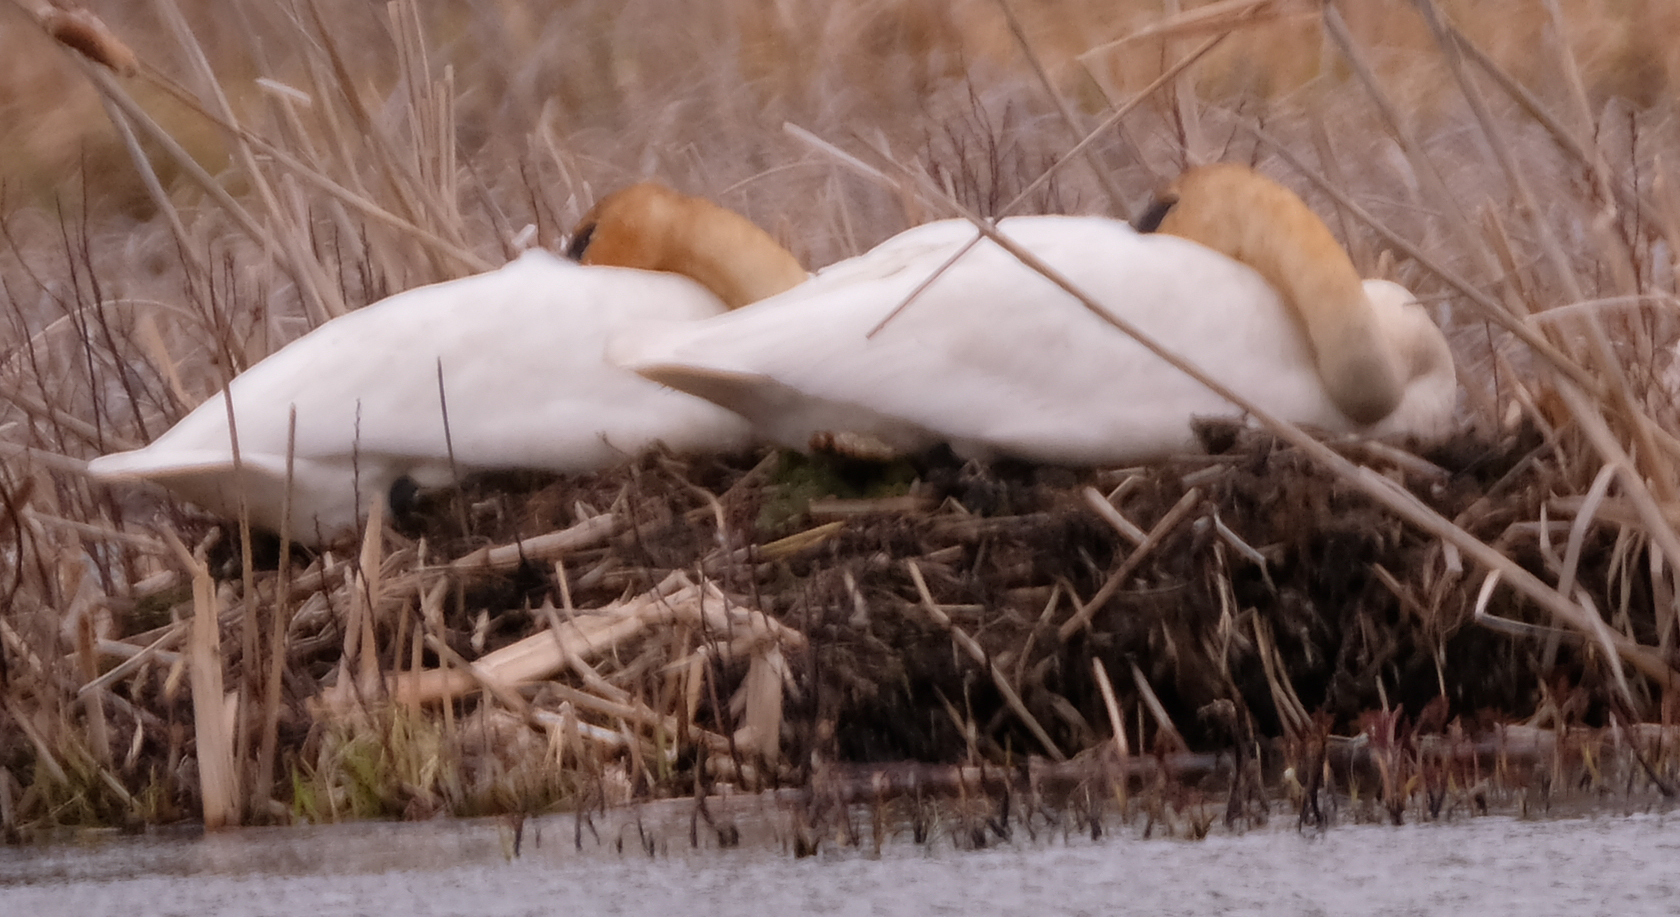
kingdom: Animalia
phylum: Chordata
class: Aves
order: Anseriformes
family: Anatidae
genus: Cygnus
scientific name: Cygnus buccinator
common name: Trumpeter swan
